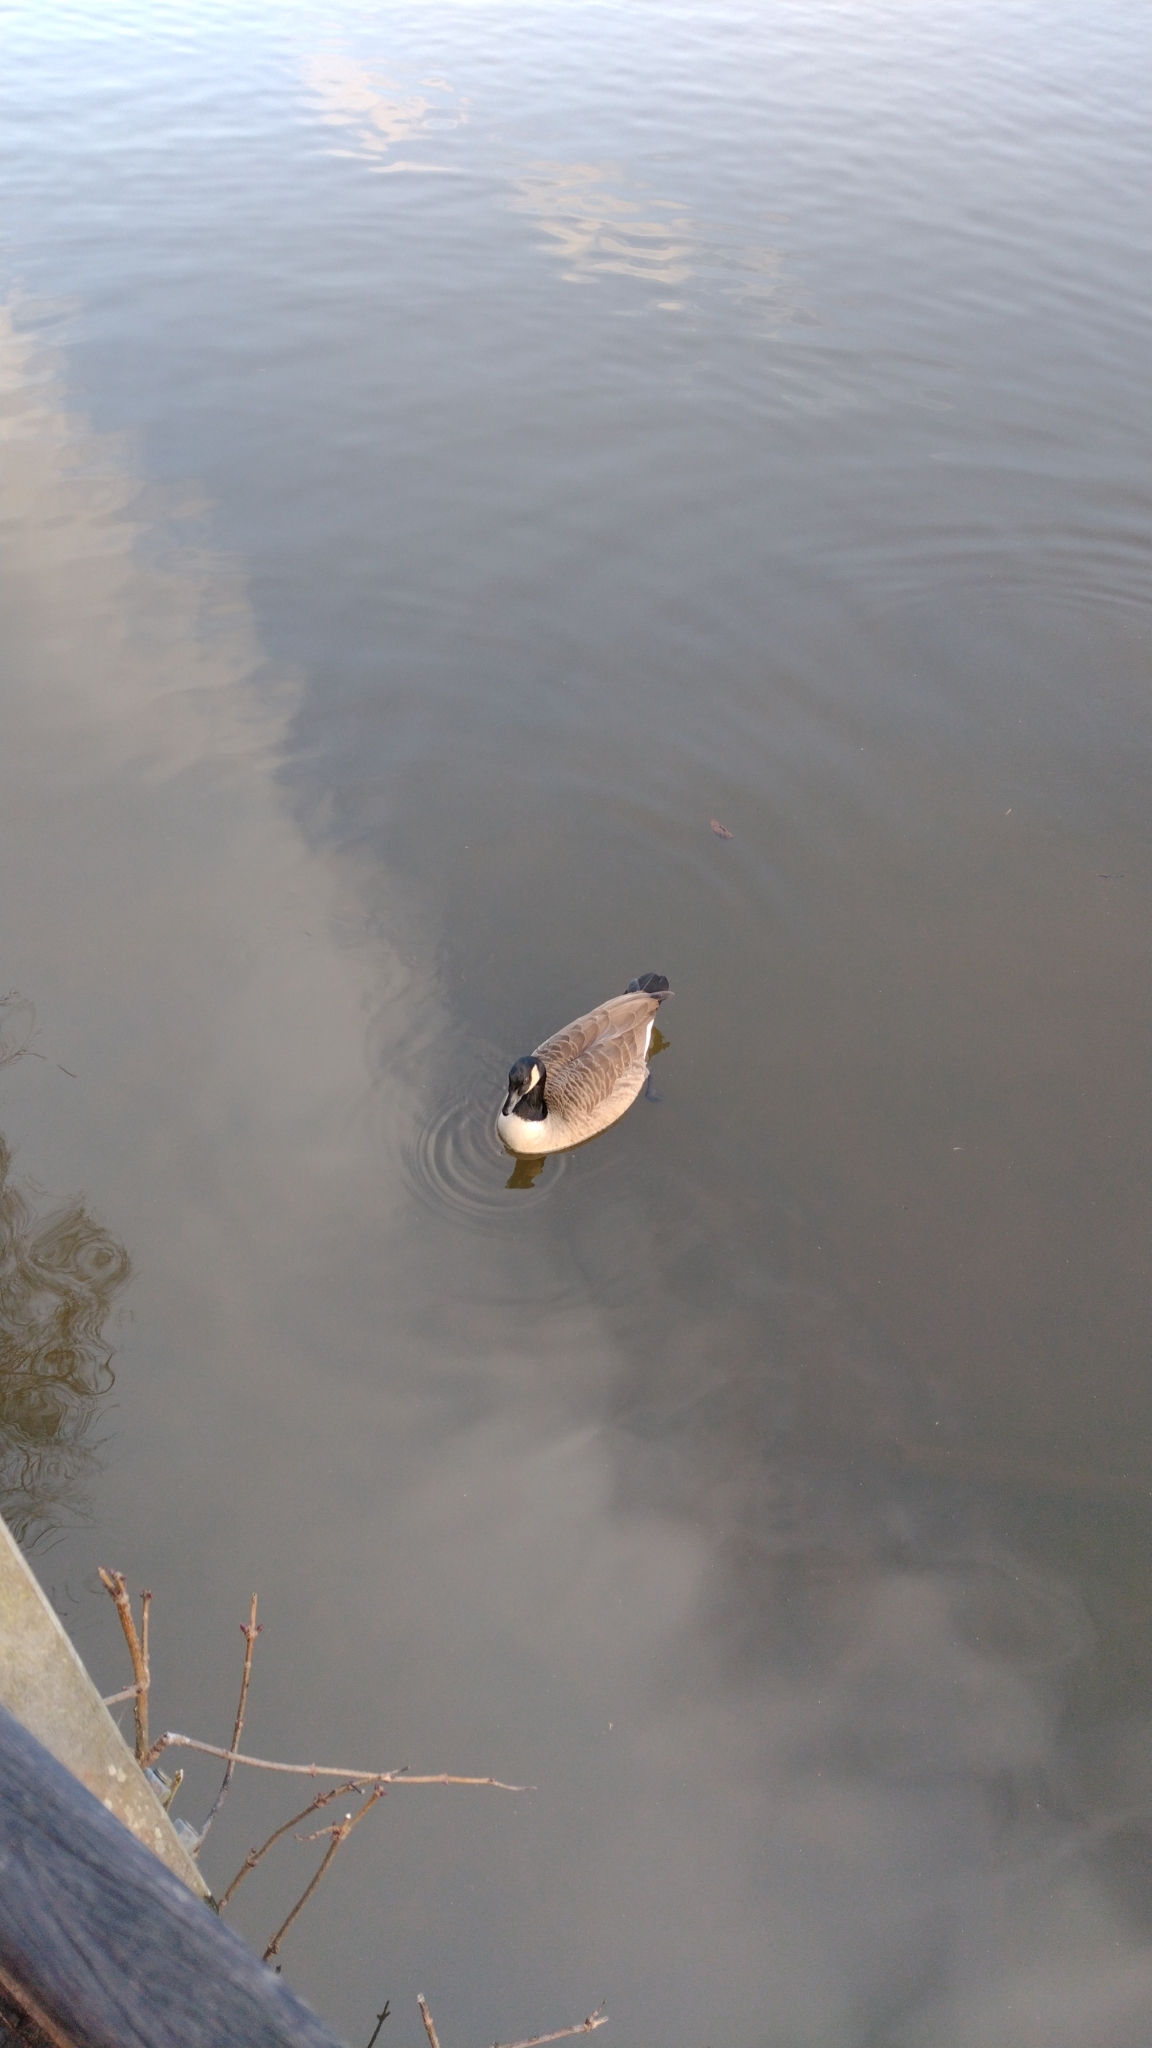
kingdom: Animalia
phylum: Chordata
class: Aves
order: Anseriformes
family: Anatidae
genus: Branta
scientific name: Branta canadensis
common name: Canada goose
